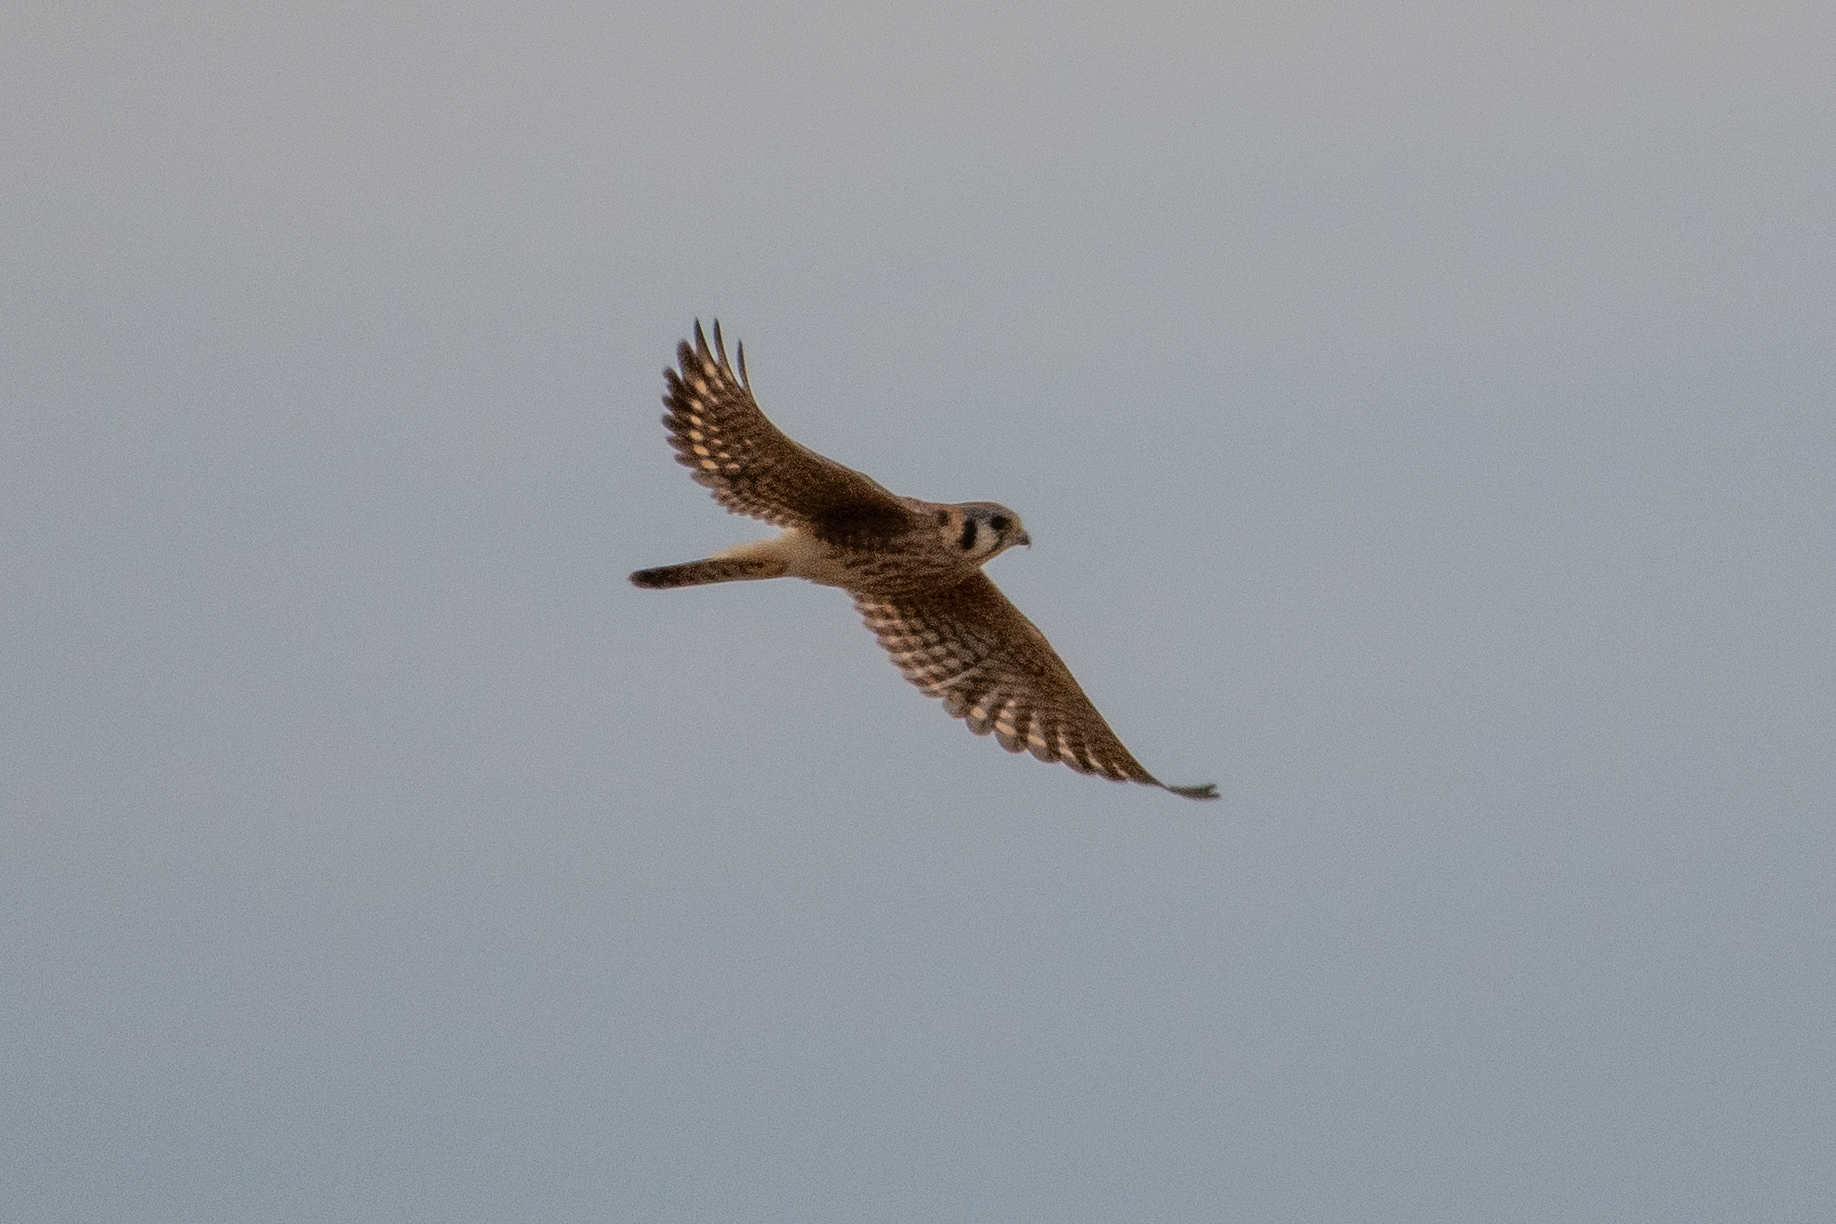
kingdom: Animalia
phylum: Chordata
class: Aves
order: Falconiformes
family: Falconidae
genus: Falco
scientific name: Falco sparverius
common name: American kestrel
